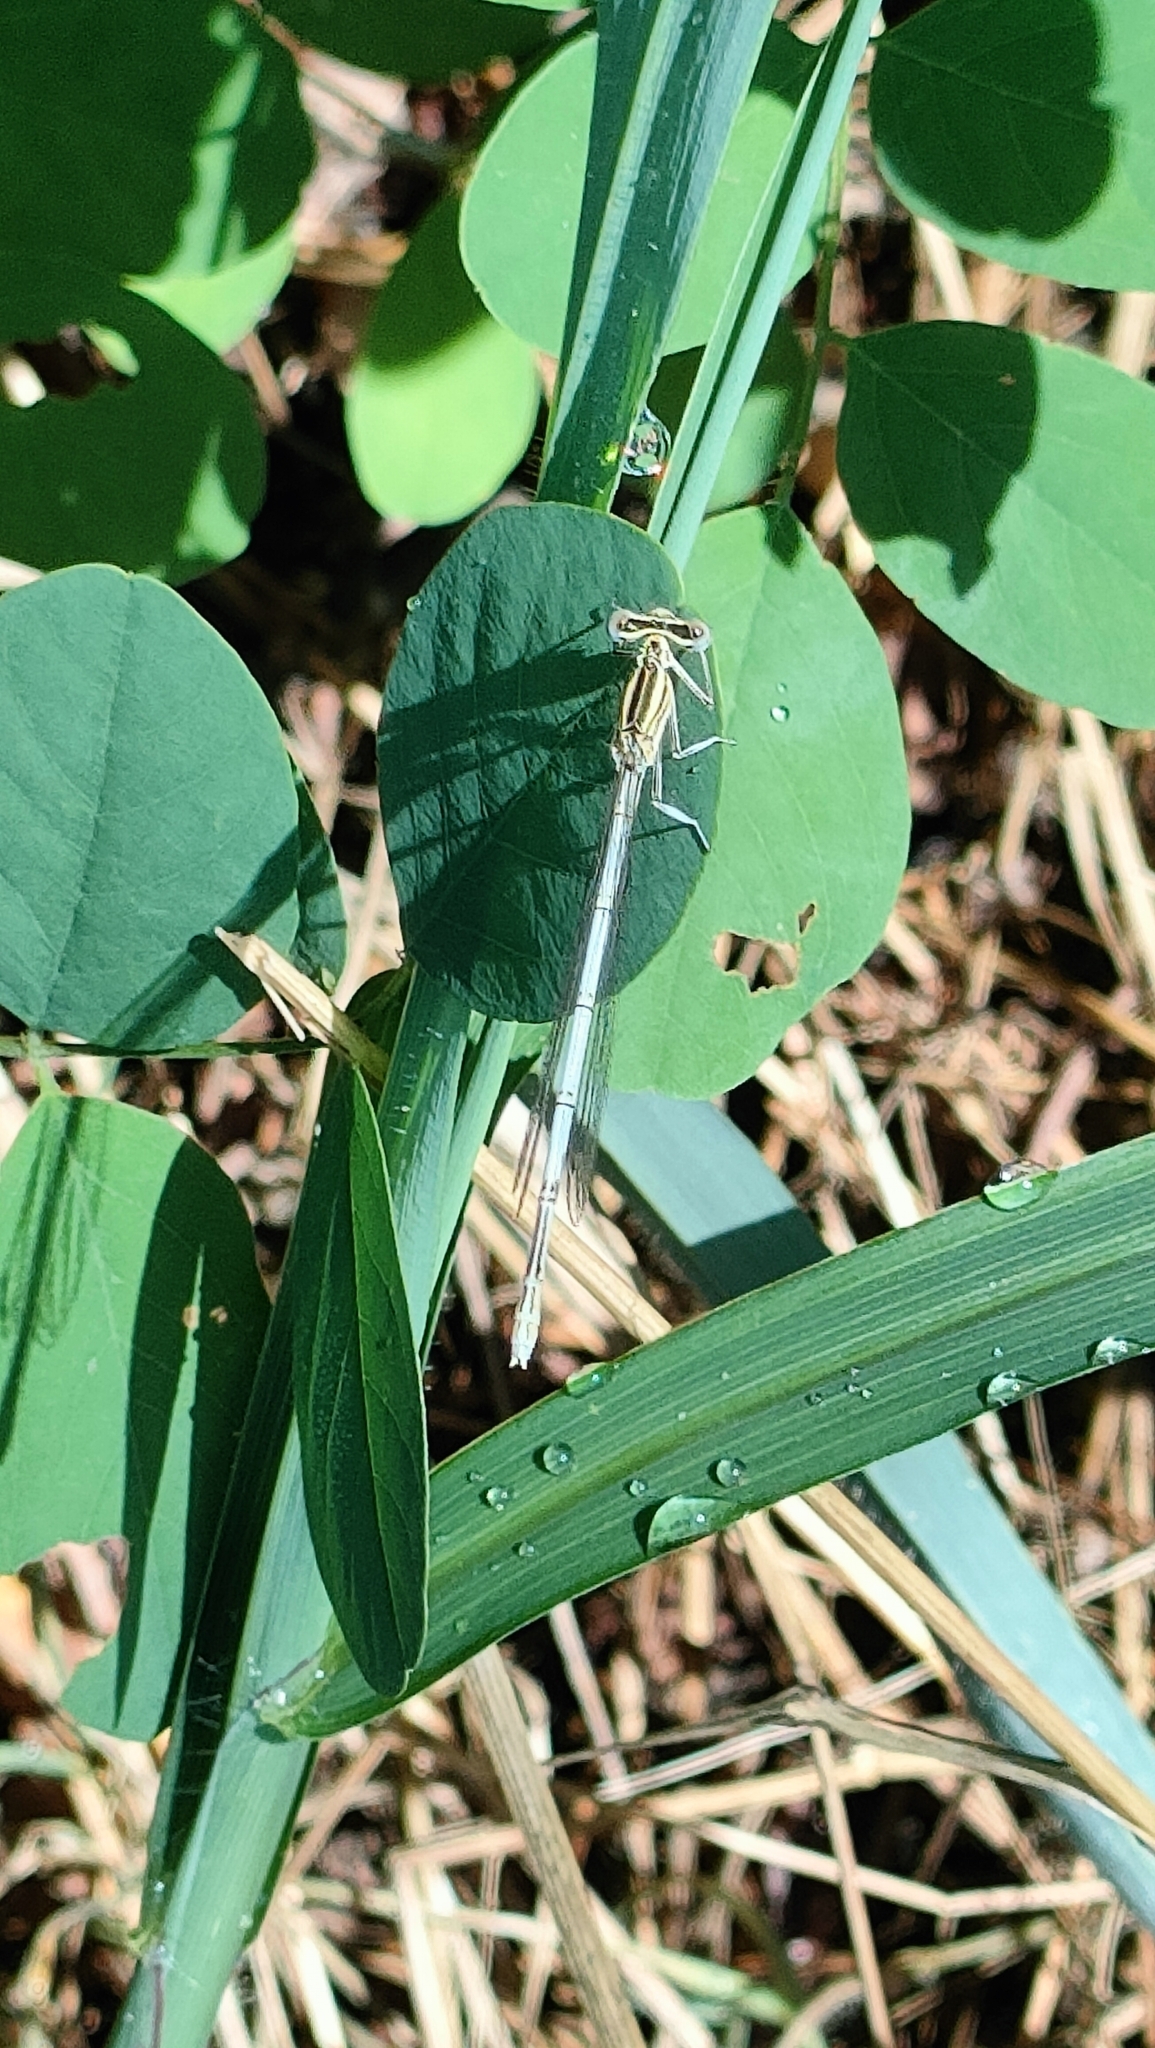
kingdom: Animalia
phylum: Arthropoda
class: Insecta
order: Odonata
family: Platycnemididae
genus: Platycnemis
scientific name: Platycnemis pennipes
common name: White-legged damselfly
